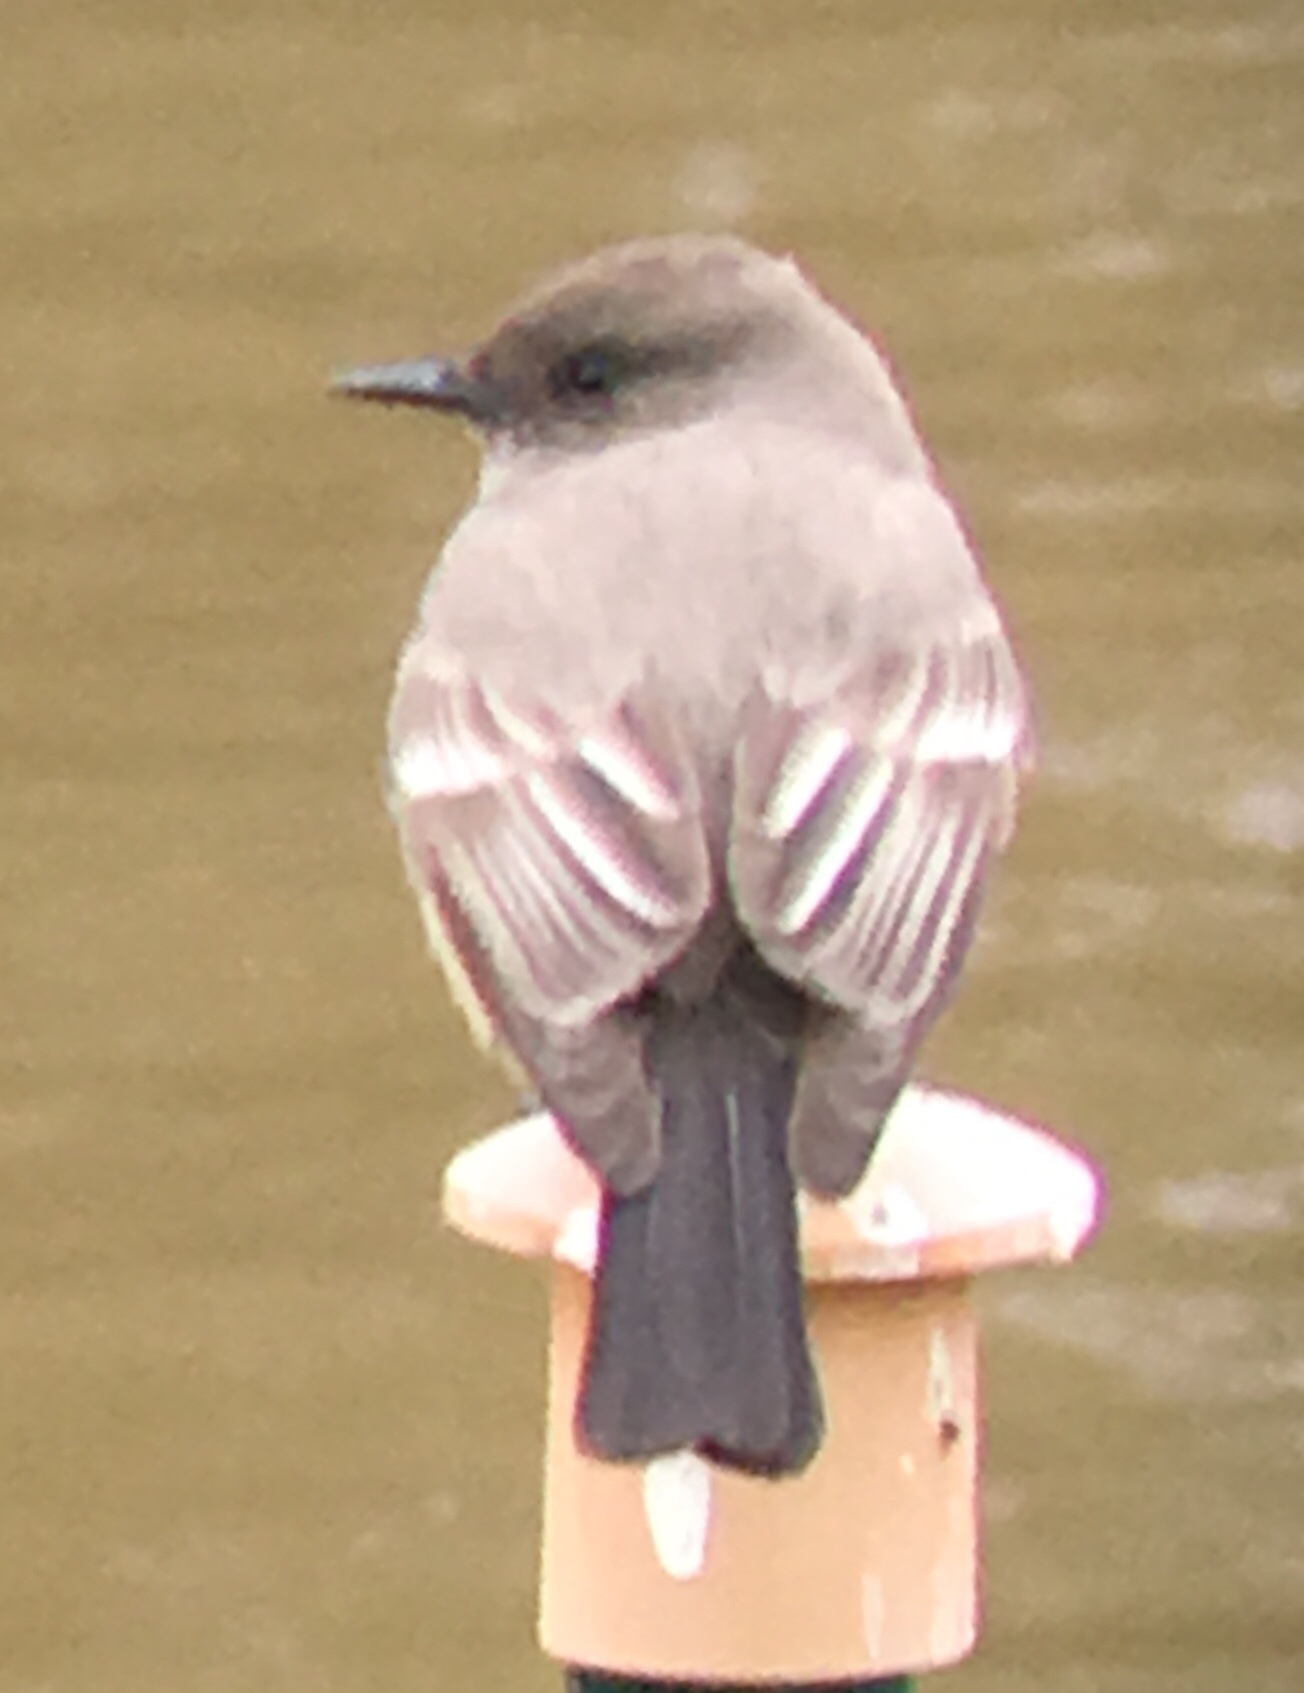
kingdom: Animalia
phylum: Chordata
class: Aves
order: Passeriformes
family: Tyrannidae
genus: Sayornis
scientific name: Sayornis saya
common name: Say's phoebe
